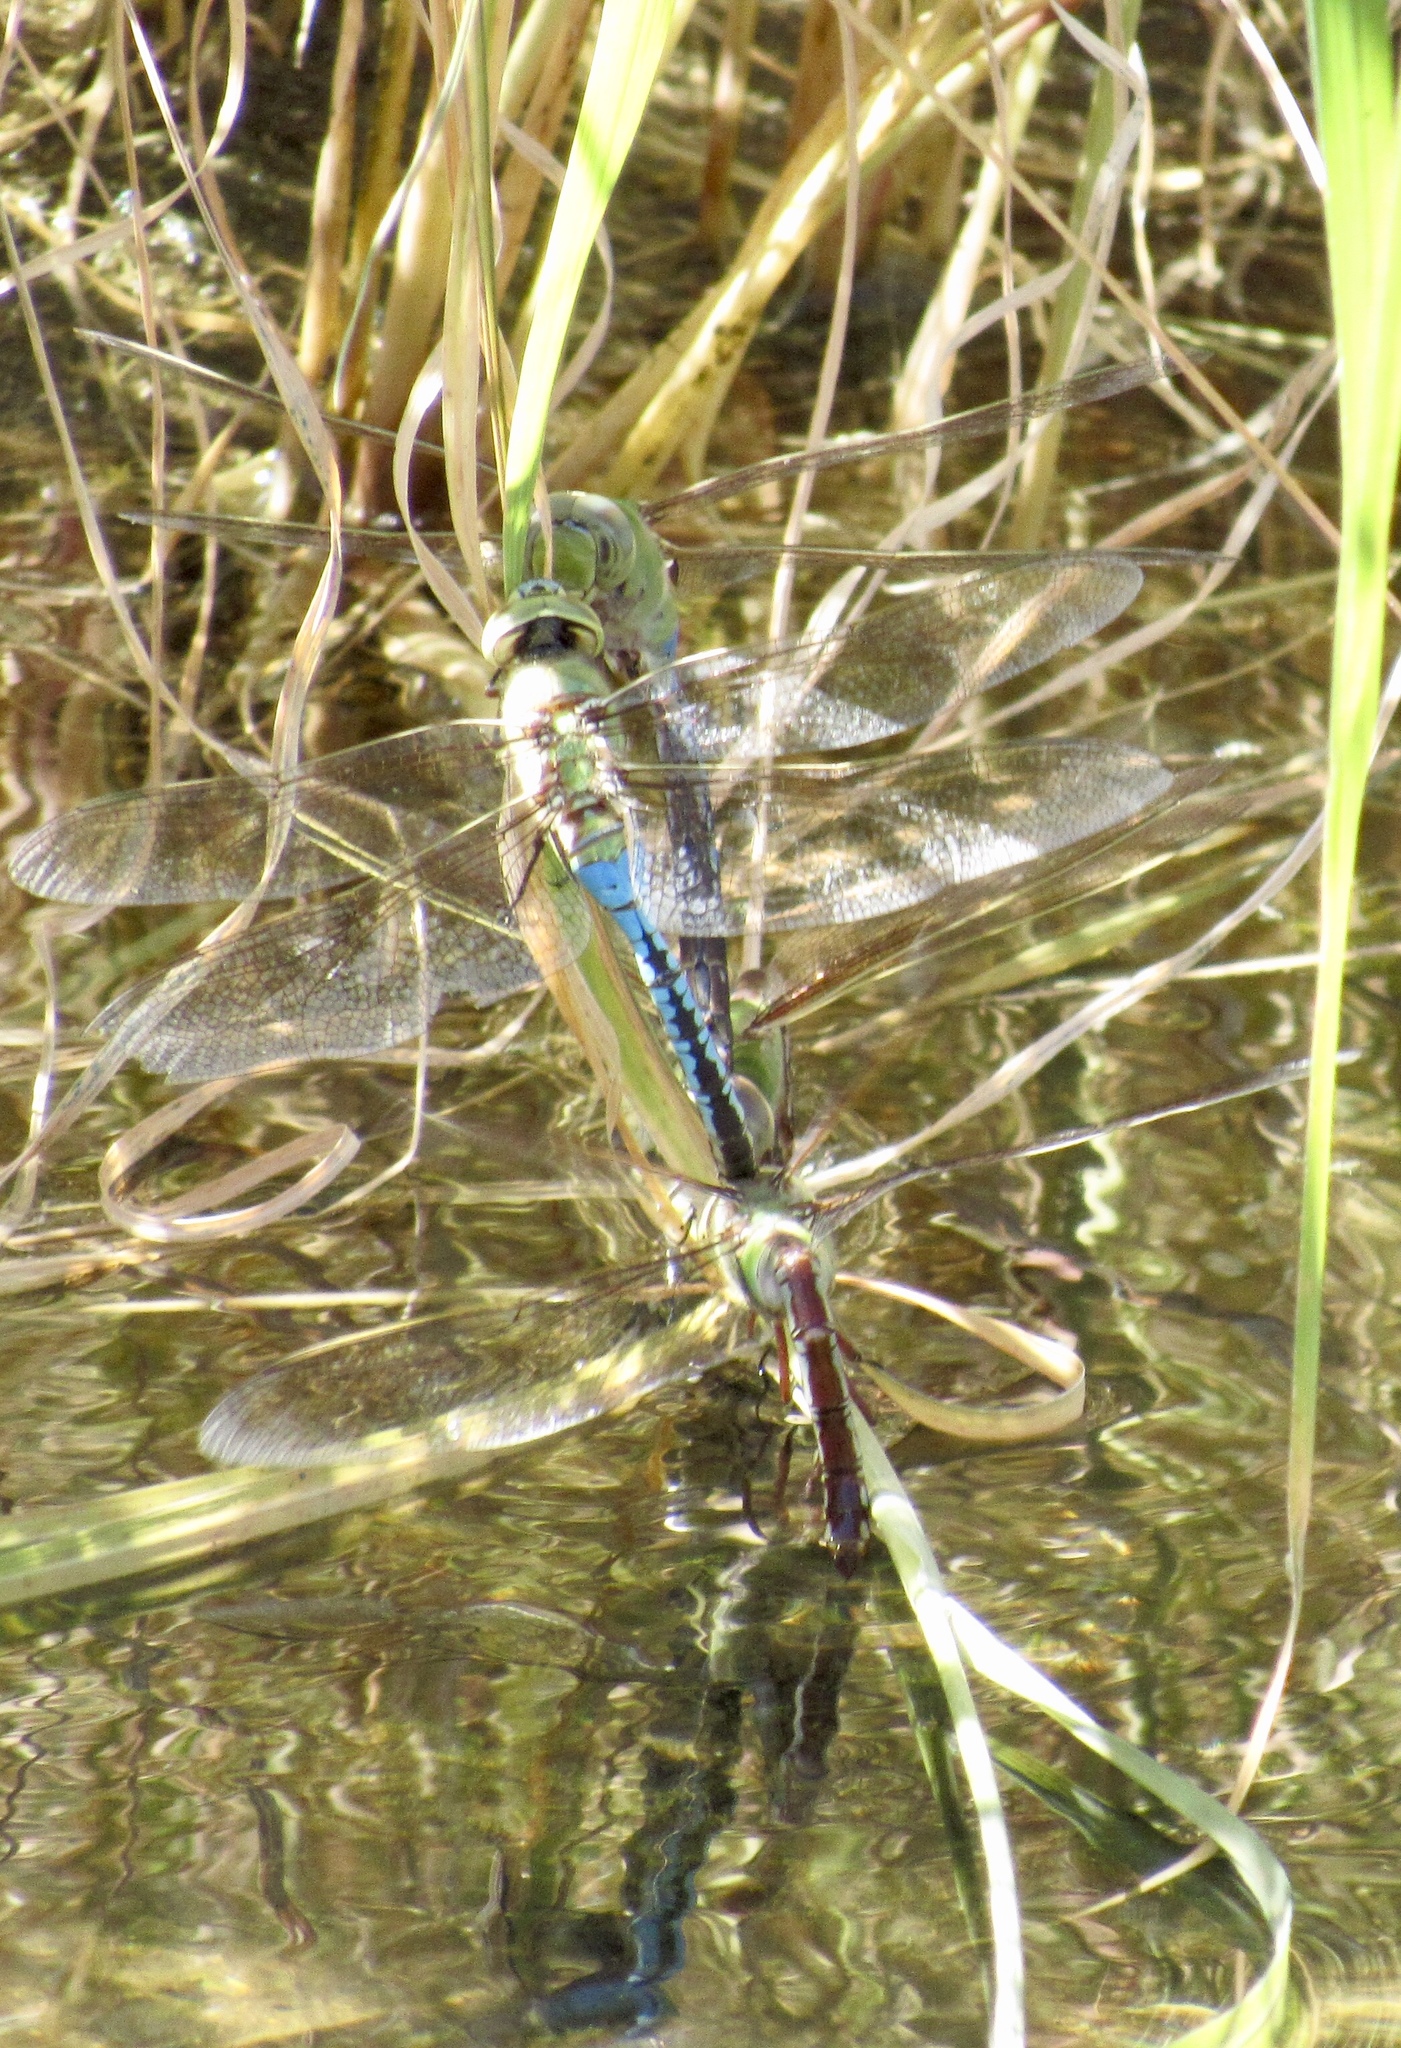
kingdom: Animalia
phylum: Arthropoda
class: Insecta
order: Odonata
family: Aeshnidae
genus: Anax
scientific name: Anax junius
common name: Common green darner
